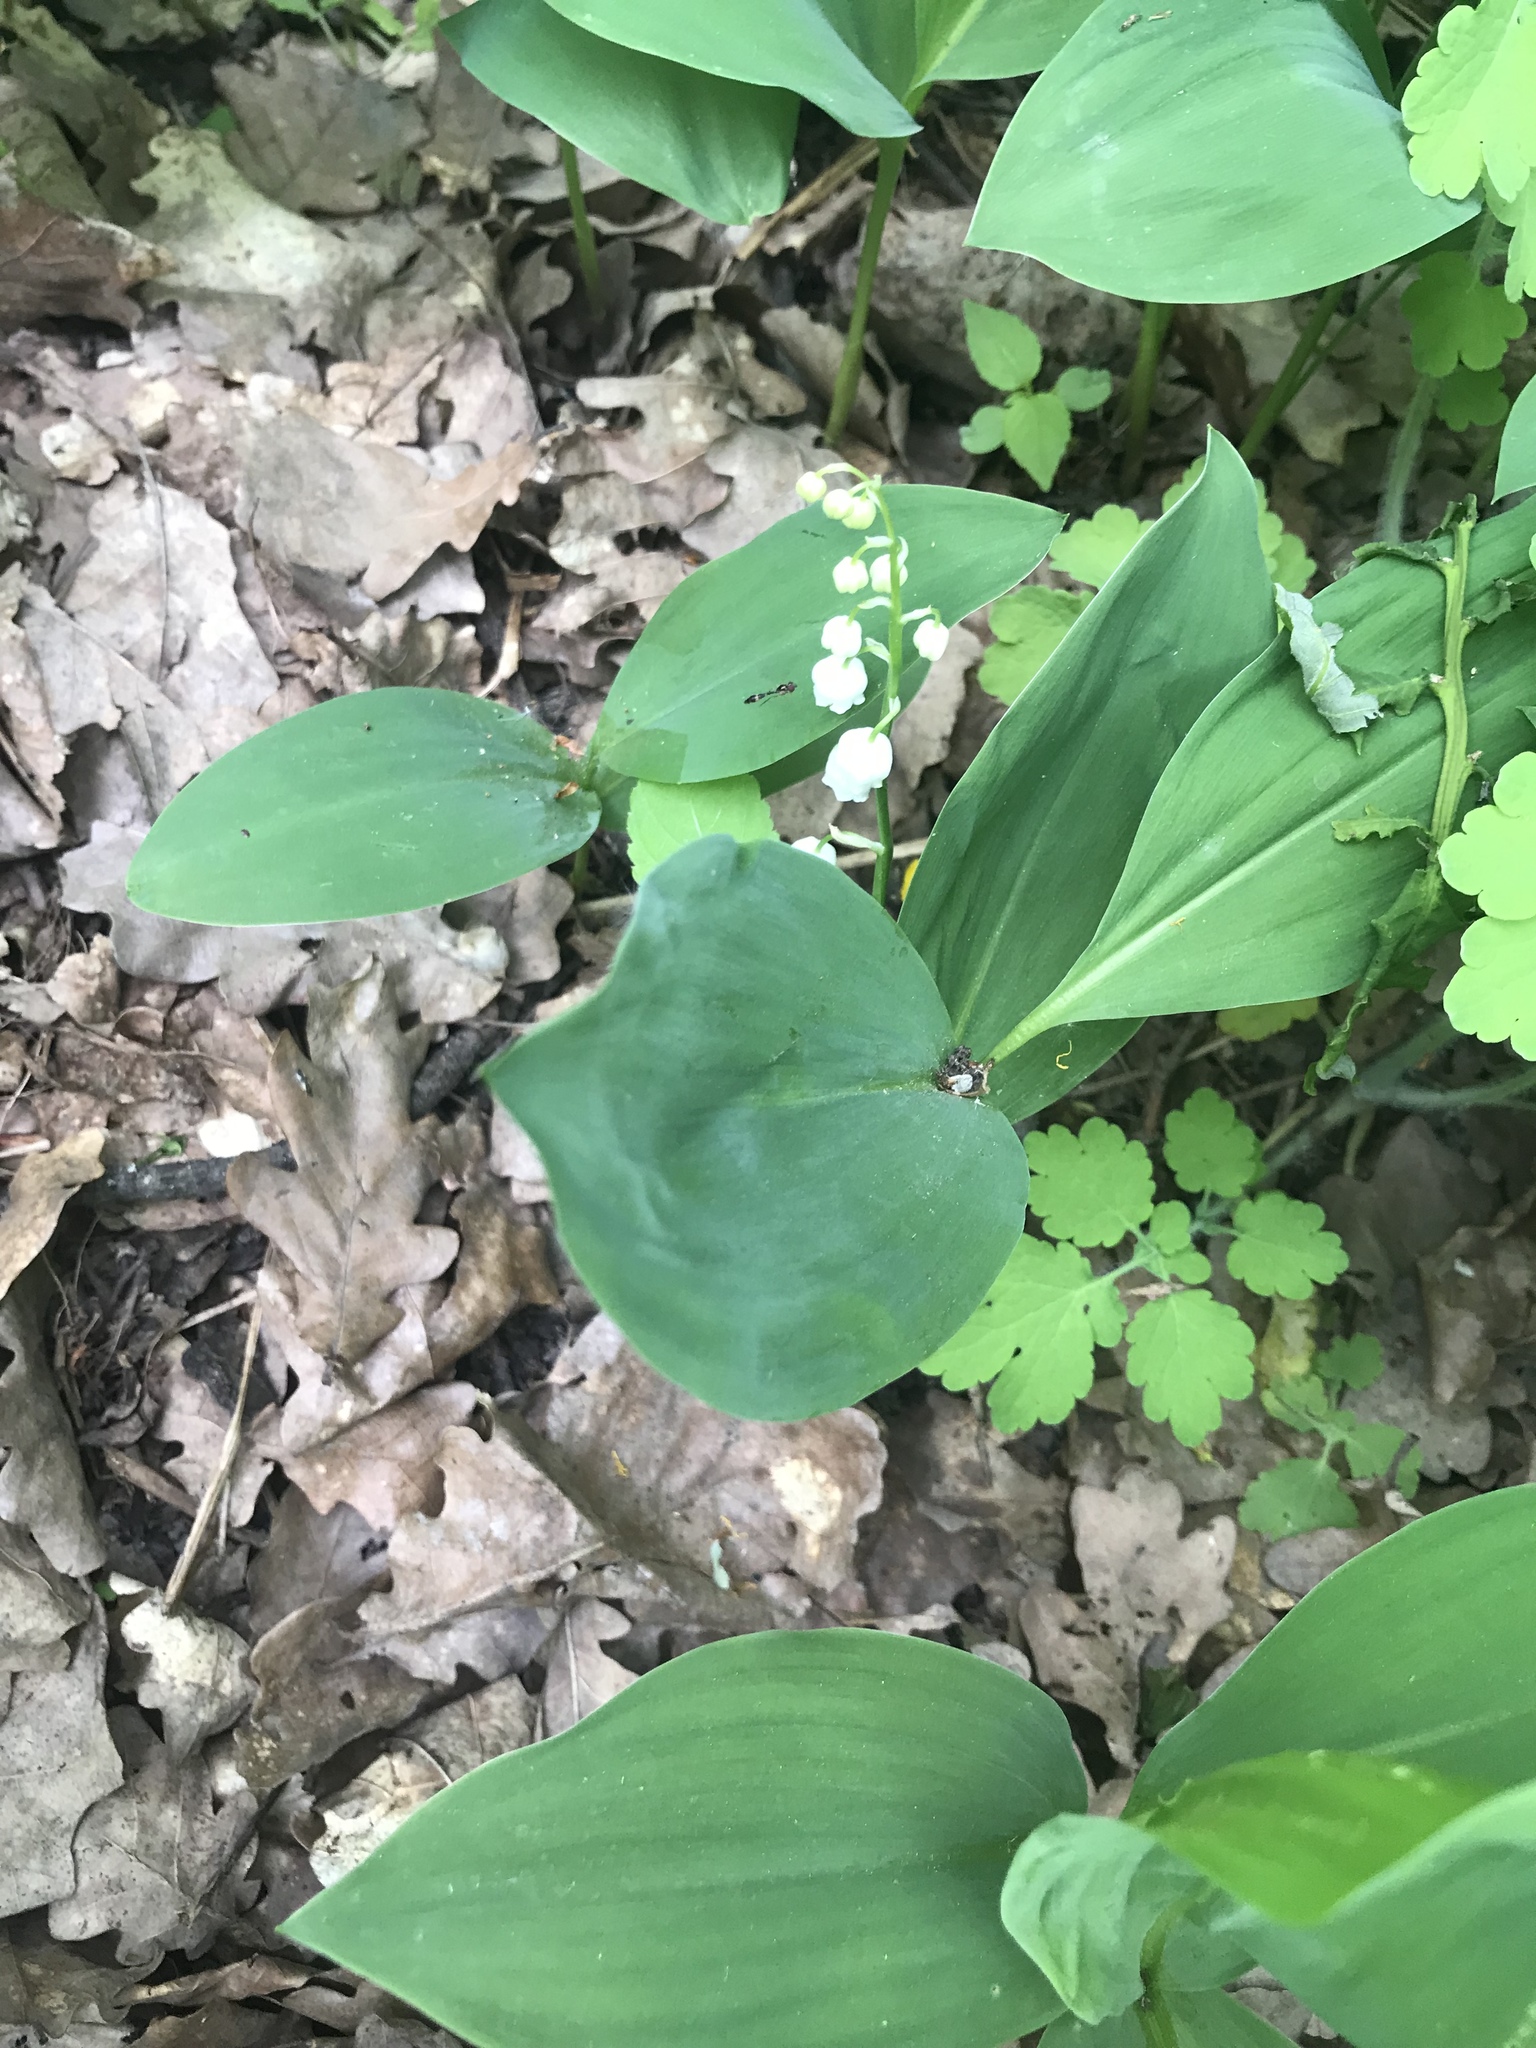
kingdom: Plantae
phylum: Tracheophyta
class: Liliopsida
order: Asparagales
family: Asparagaceae
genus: Convallaria
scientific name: Convallaria majalis
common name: Lily-of-the-valley
